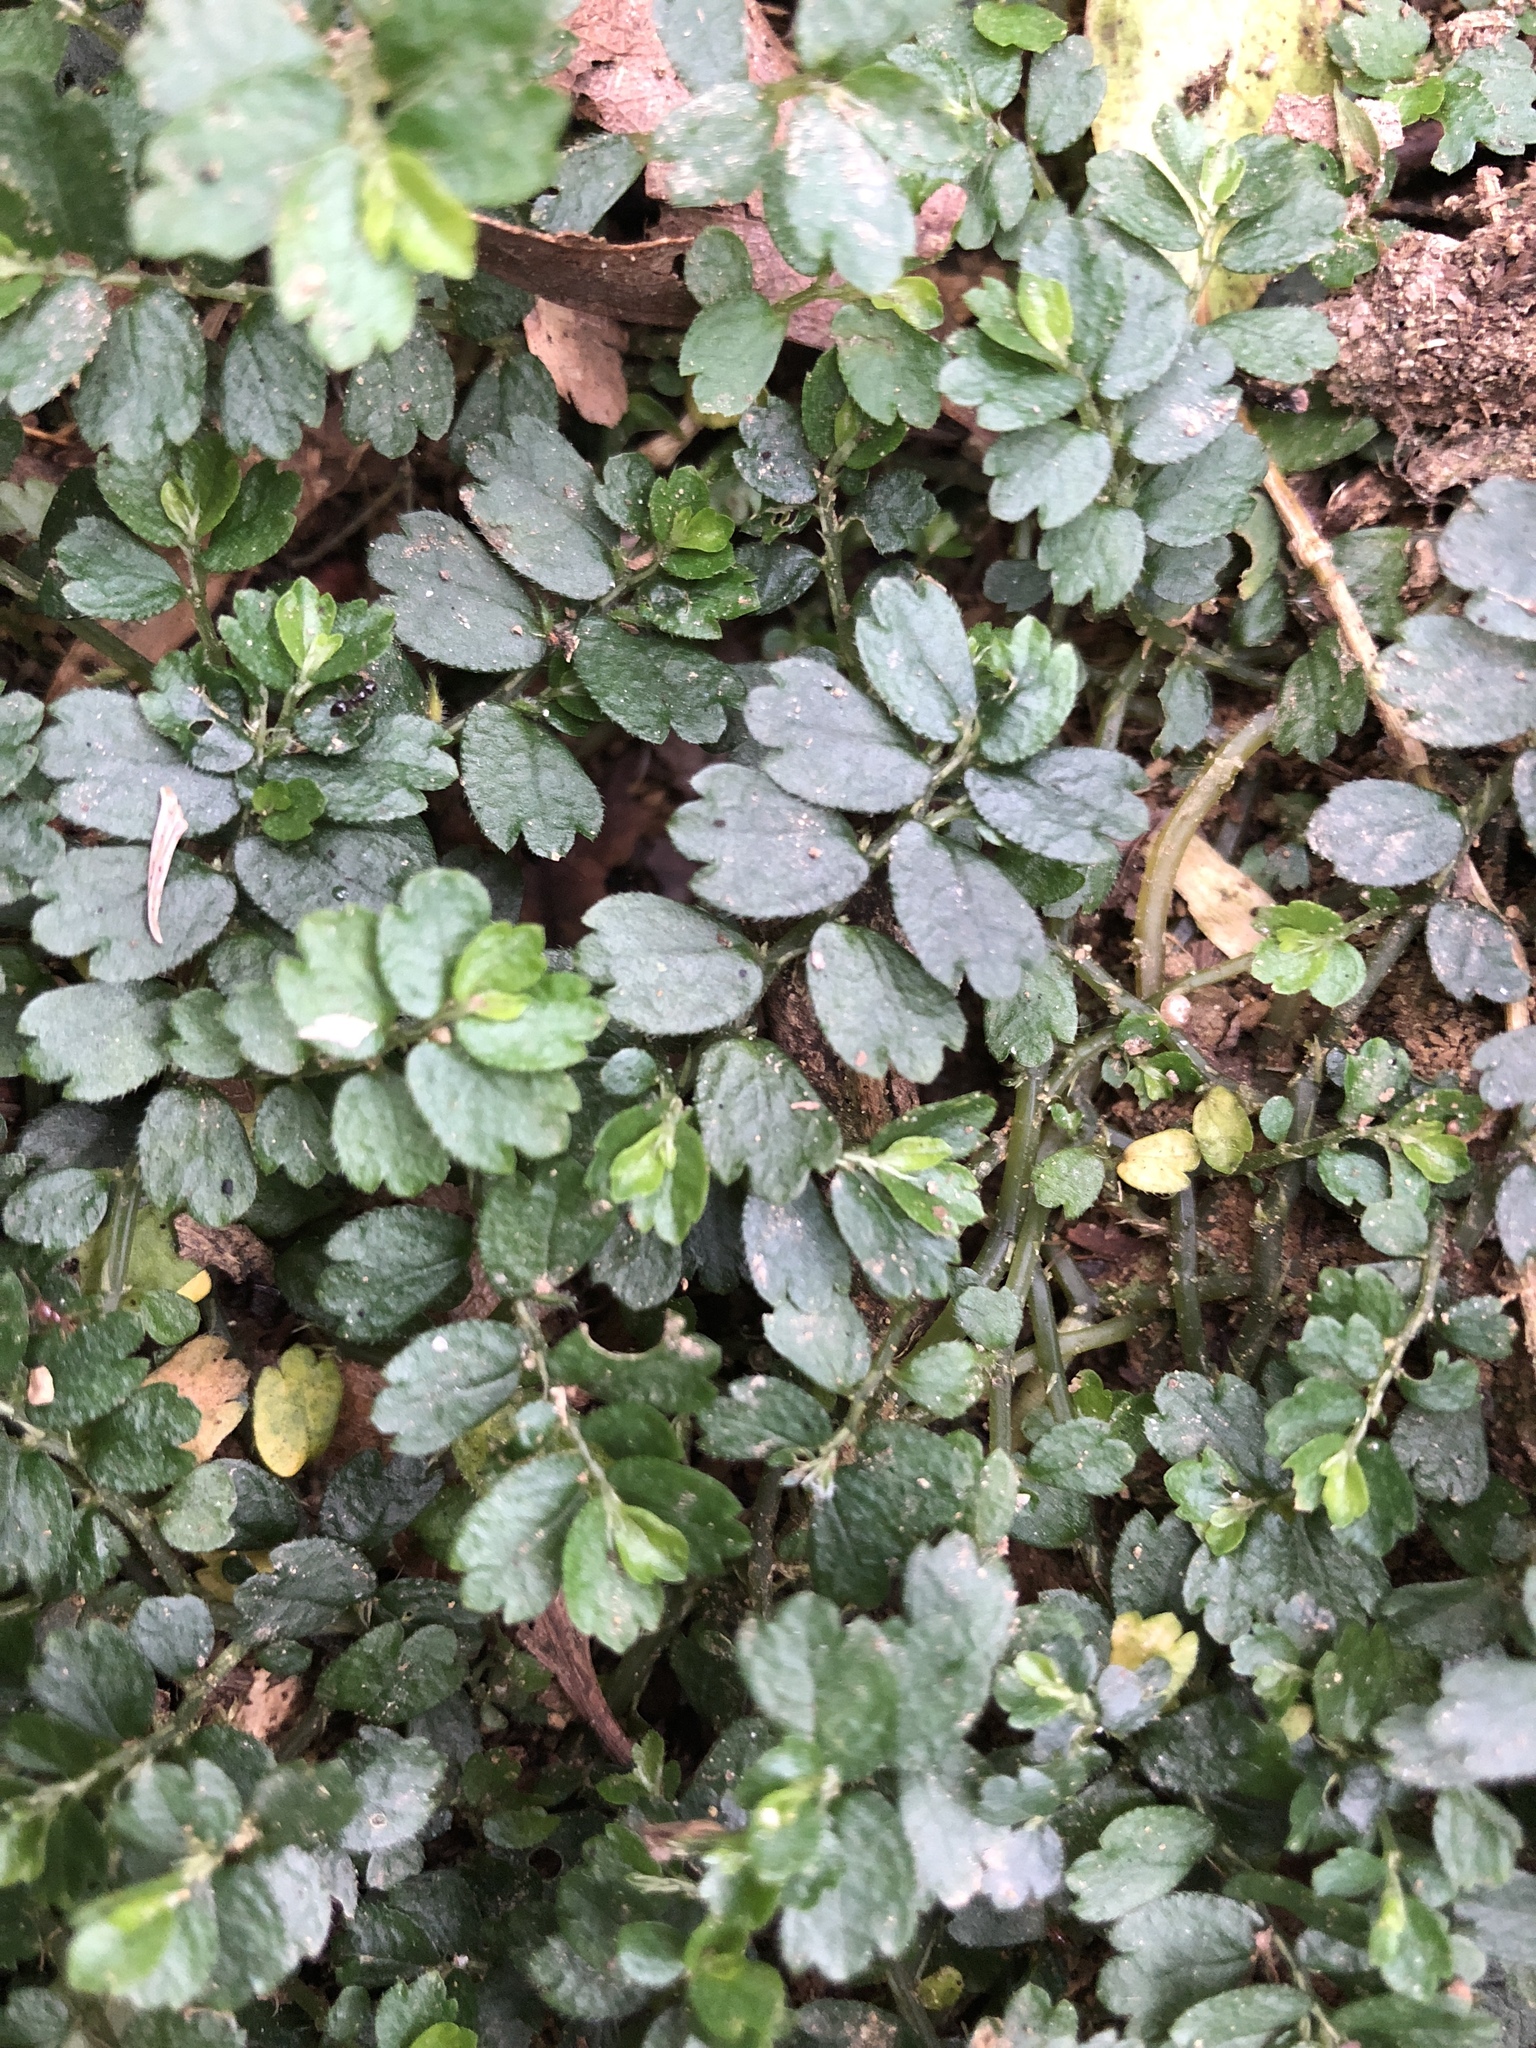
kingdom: Plantae
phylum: Tracheophyta
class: Magnoliopsida
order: Rosales
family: Urticaceae
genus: Elatostema
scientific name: Elatostema obtusum
